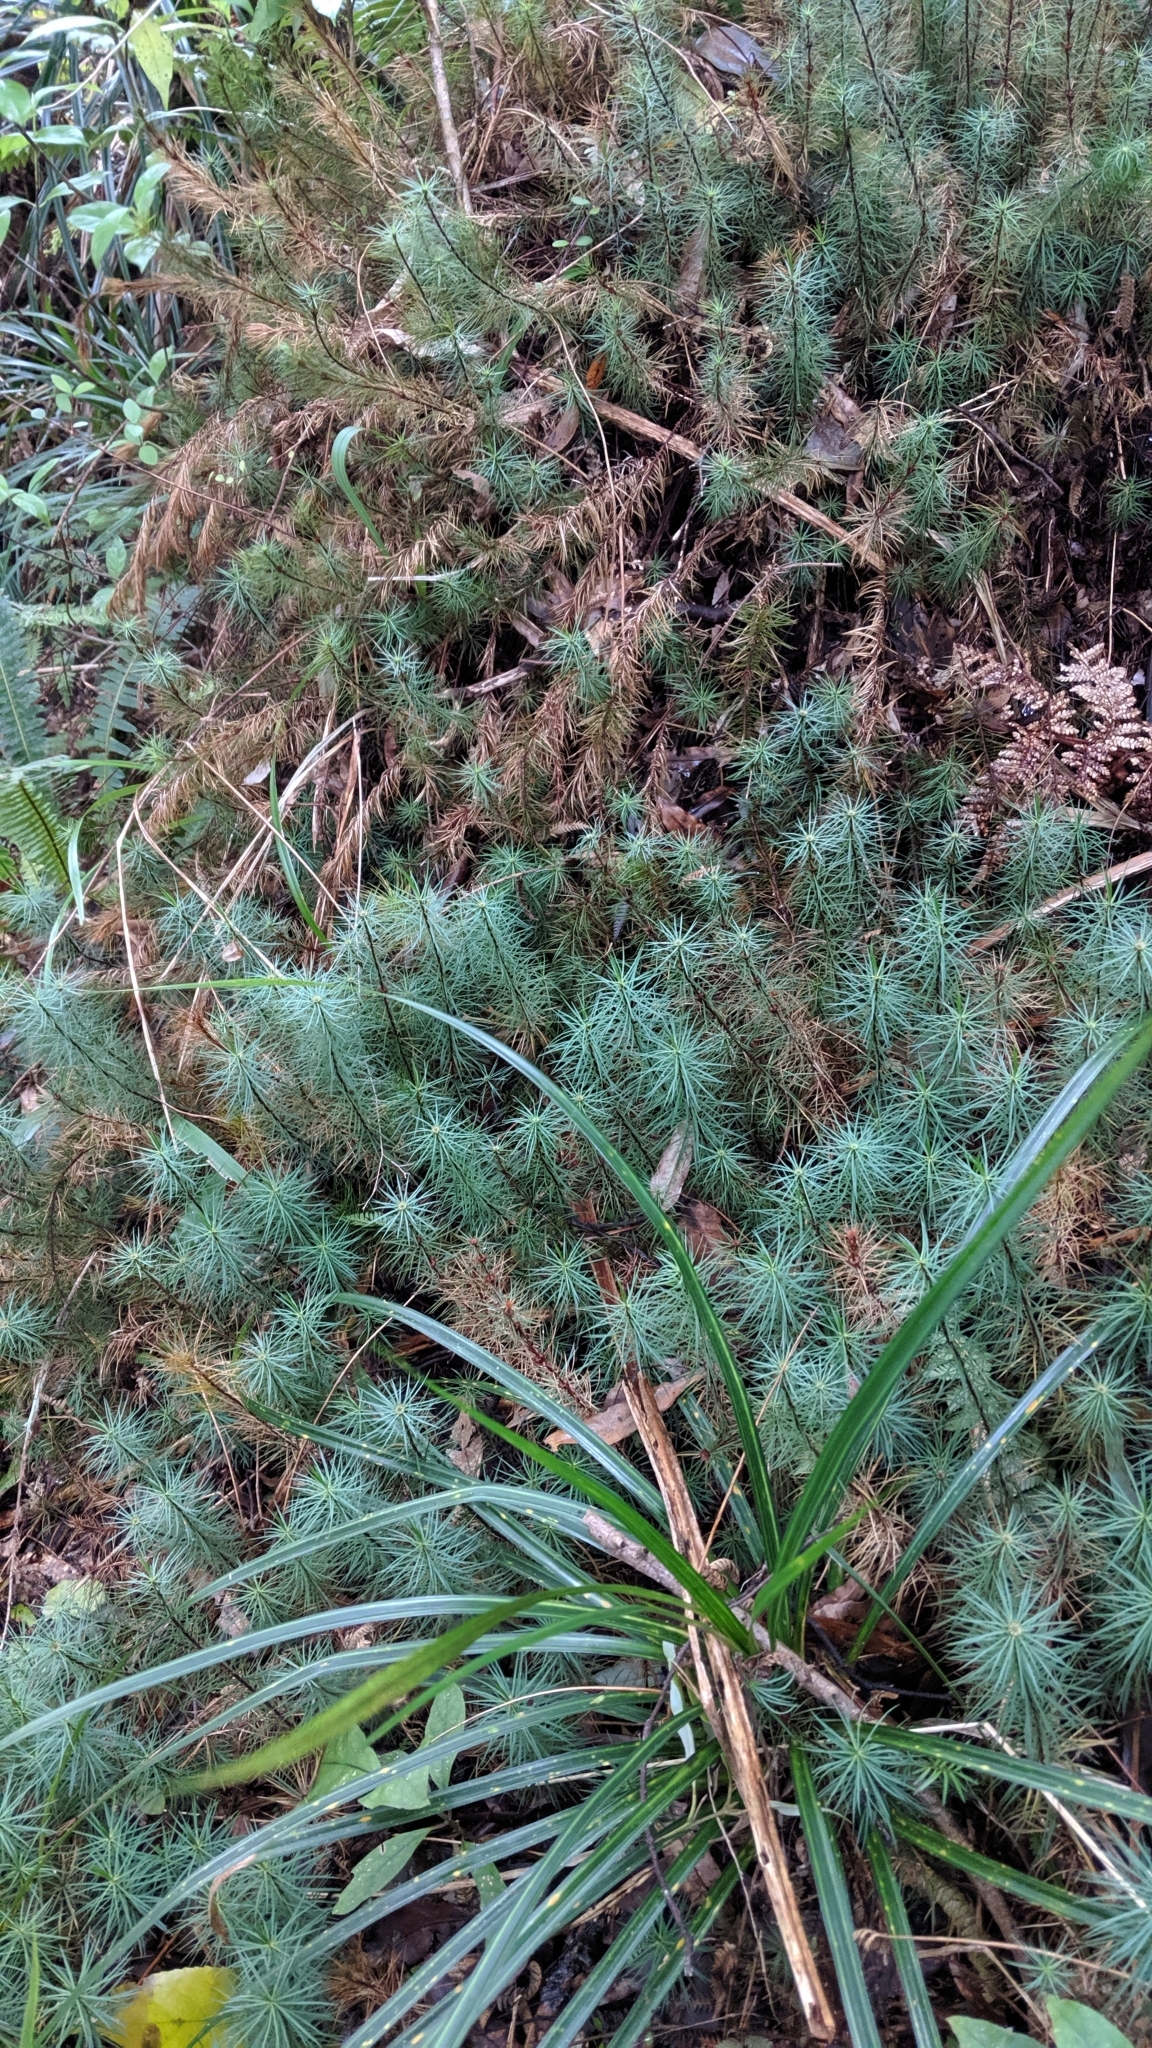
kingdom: Plantae
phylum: Bryophyta
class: Polytrichopsida
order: Polytrichales
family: Polytrichaceae
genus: Dawsonia
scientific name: Dawsonia superba
